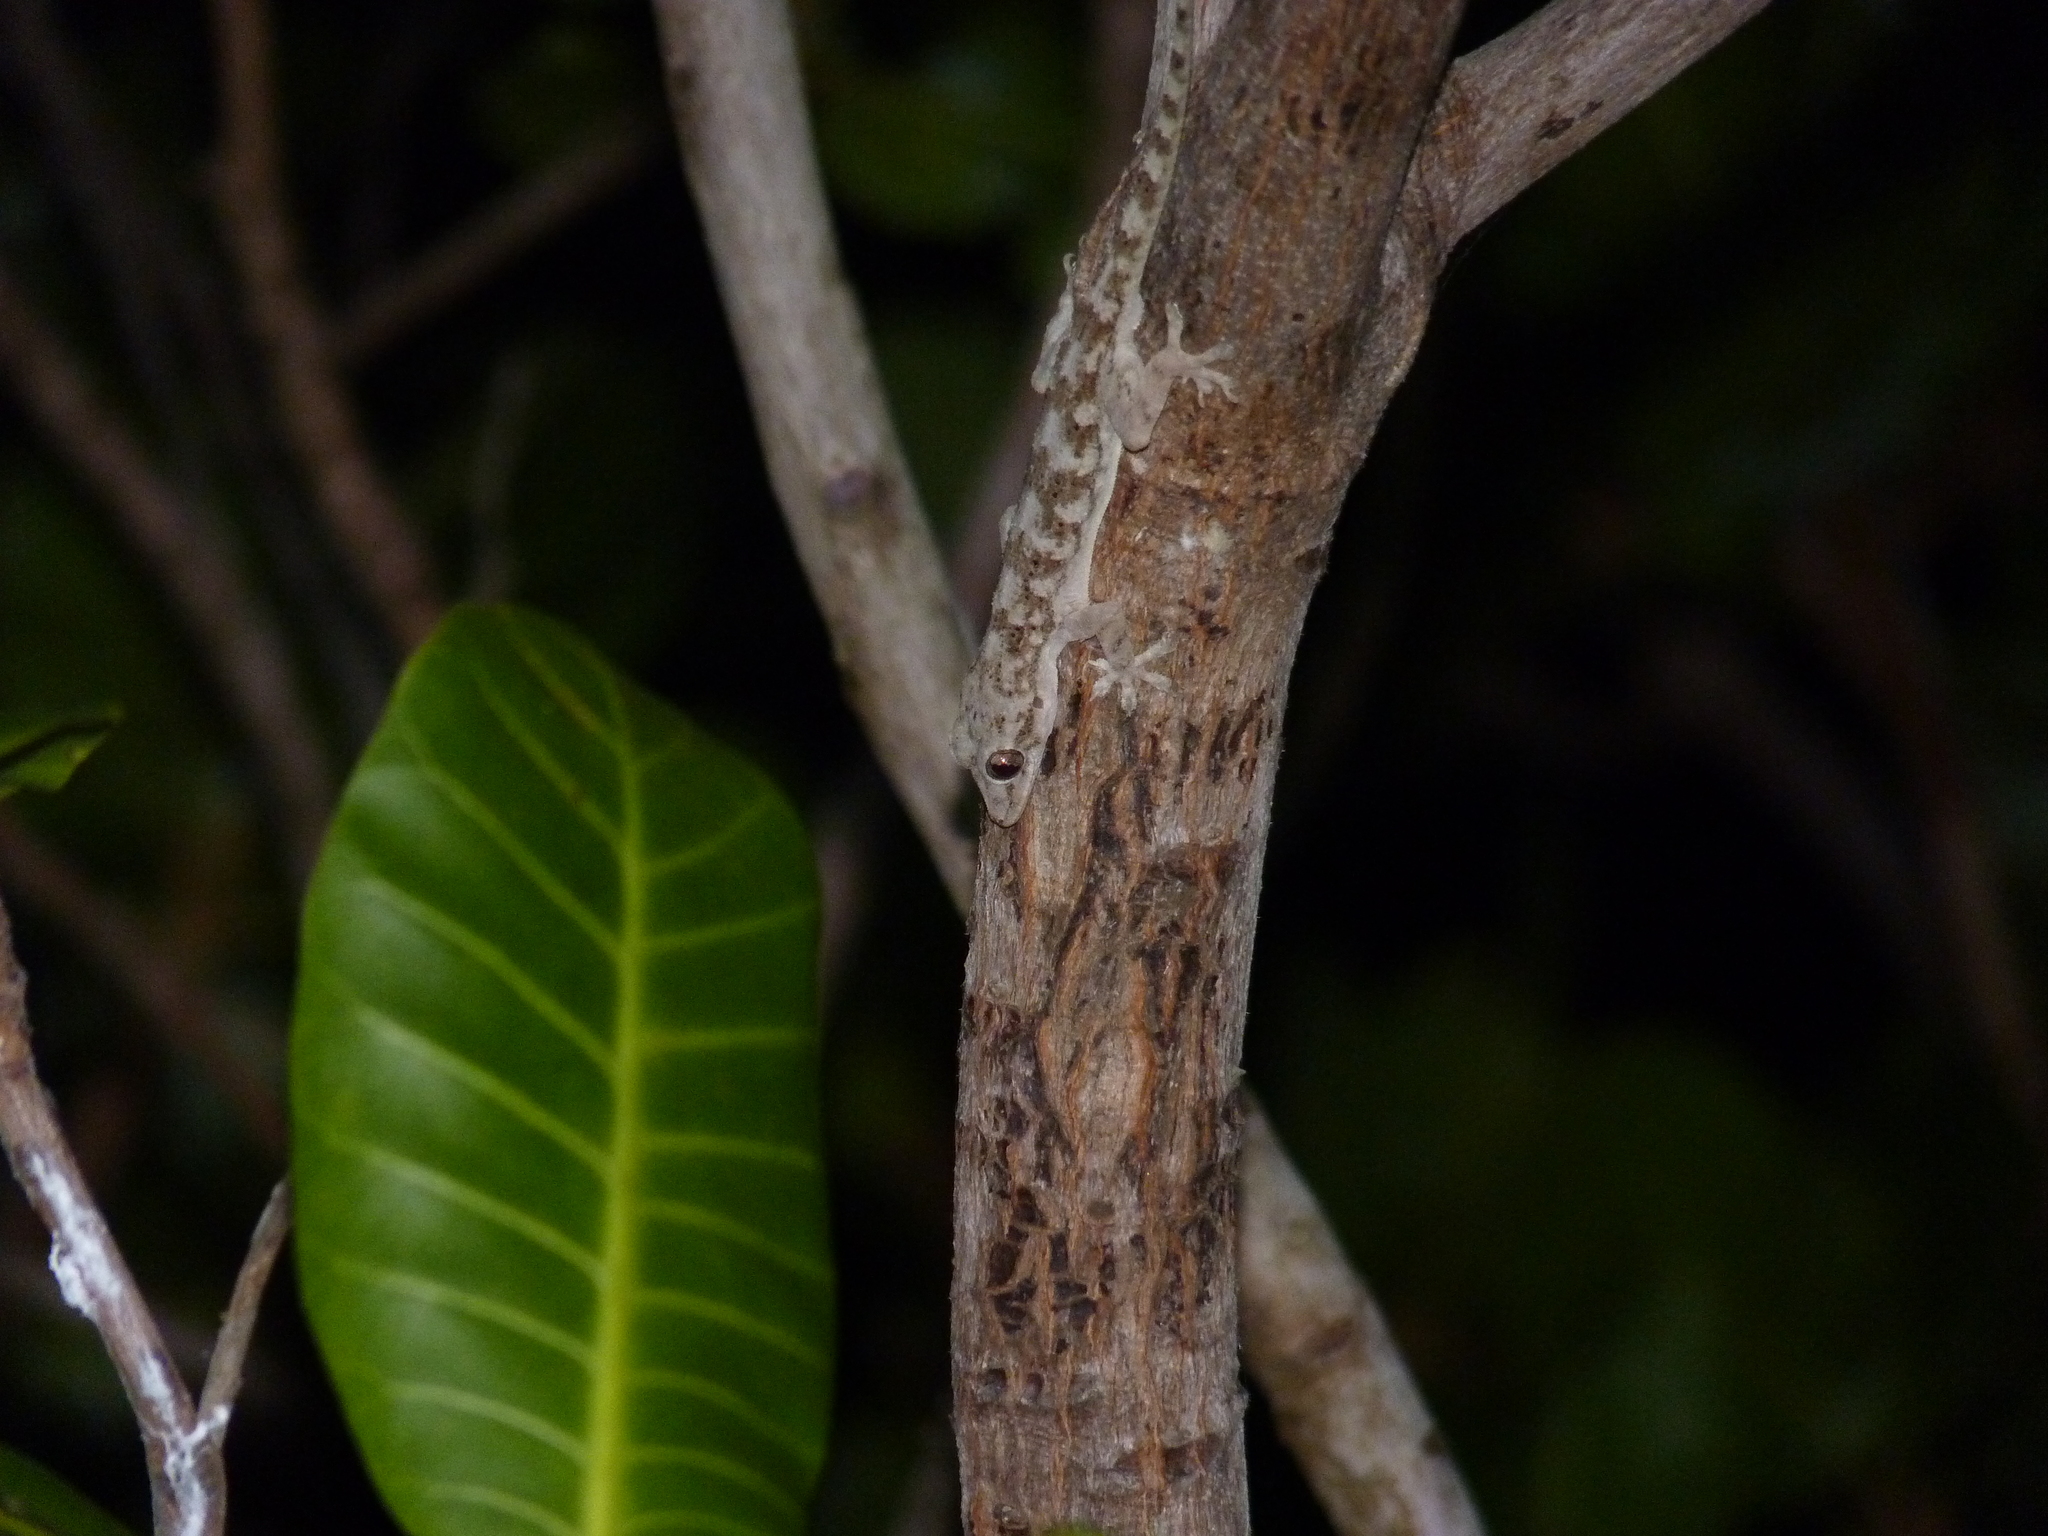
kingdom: Animalia
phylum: Chordata
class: Squamata
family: Gekkonidae
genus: Hemidactylus
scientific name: Hemidactylus mercatorius
